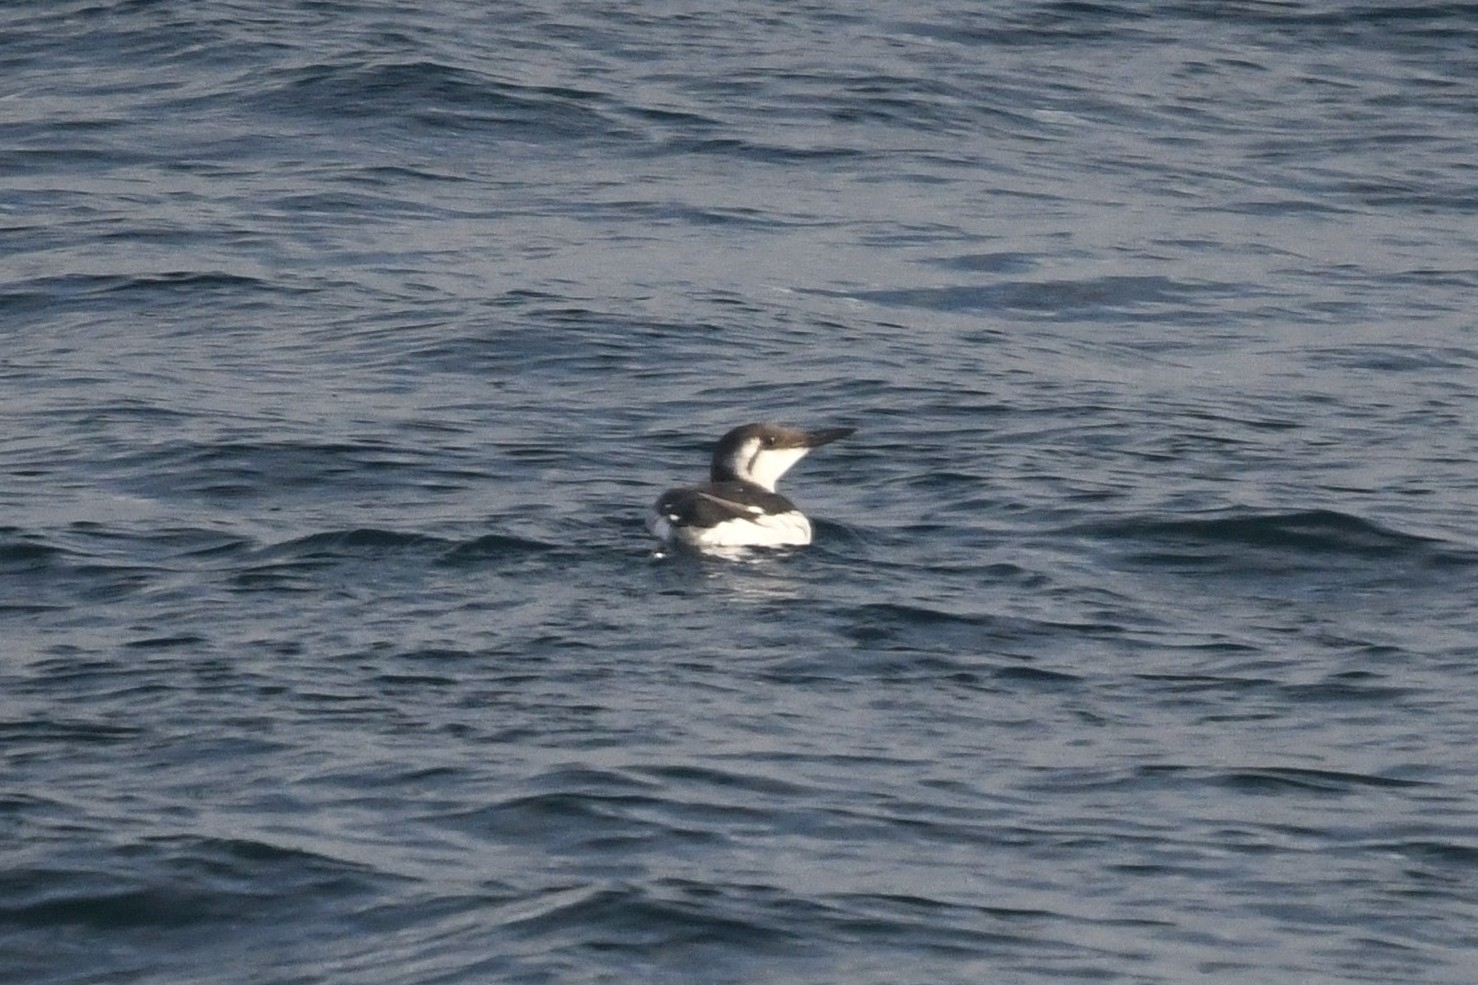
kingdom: Animalia
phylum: Chordata
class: Aves
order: Charadriiformes
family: Alcidae
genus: Uria
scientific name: Uria aalge
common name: Common murre
